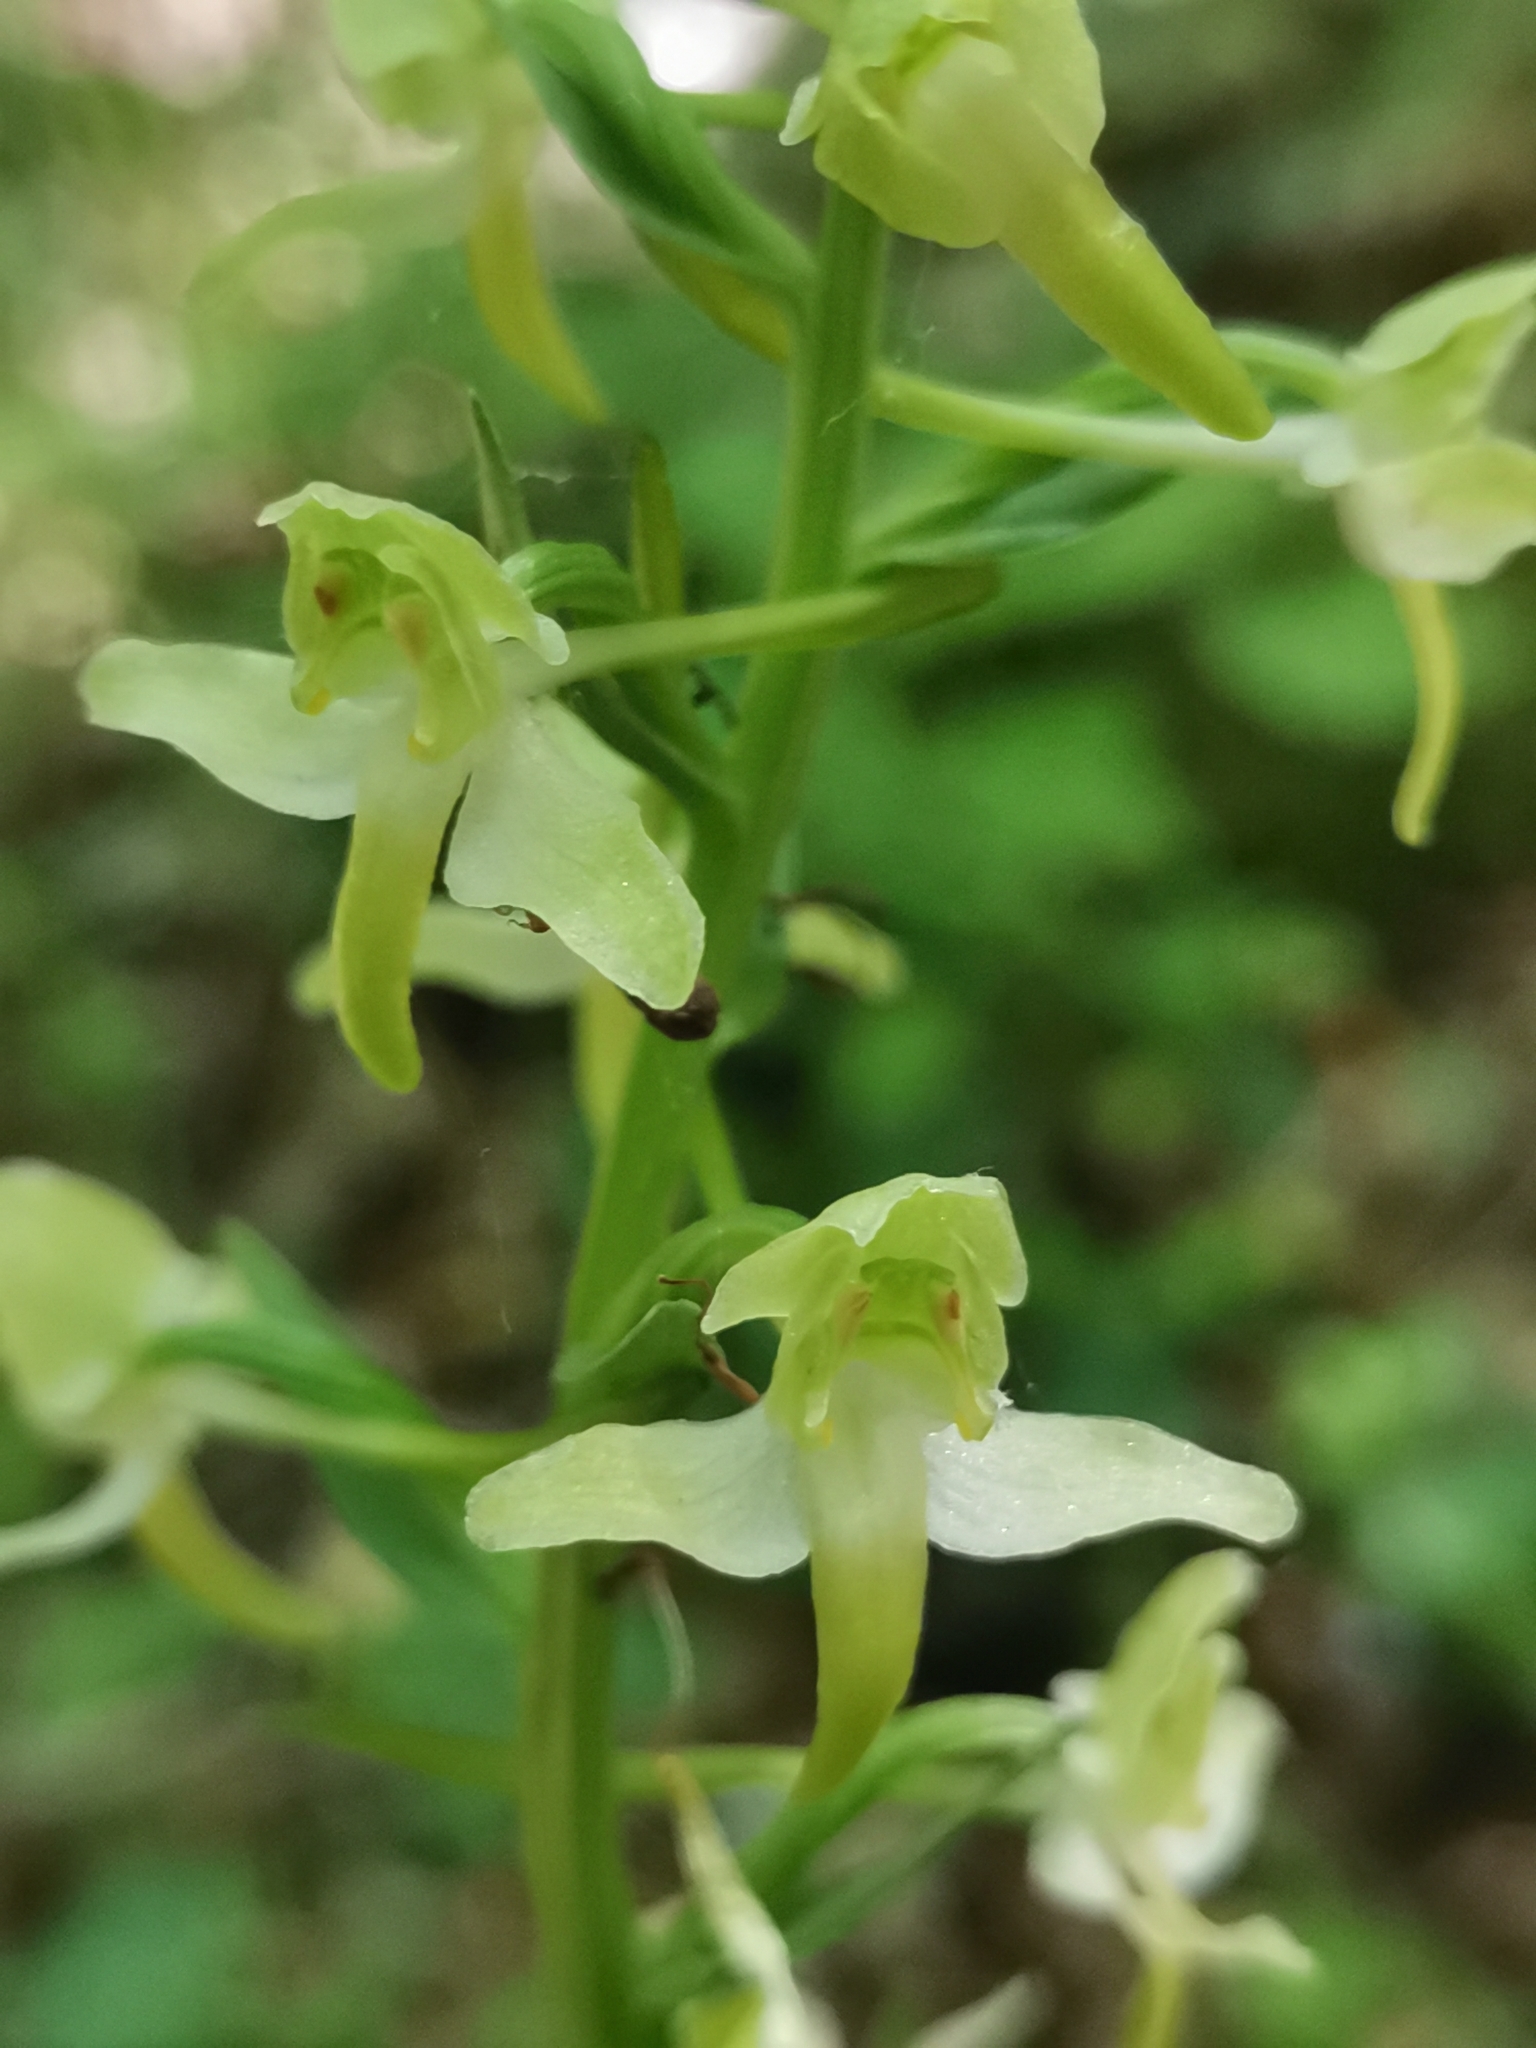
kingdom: Plantae
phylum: Tracheophyta
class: Liliopsida
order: Asparagales
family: Orchidaceae
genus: Platanthera
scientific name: Platanthera chlorantha
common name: Greater butterfly-orchid
